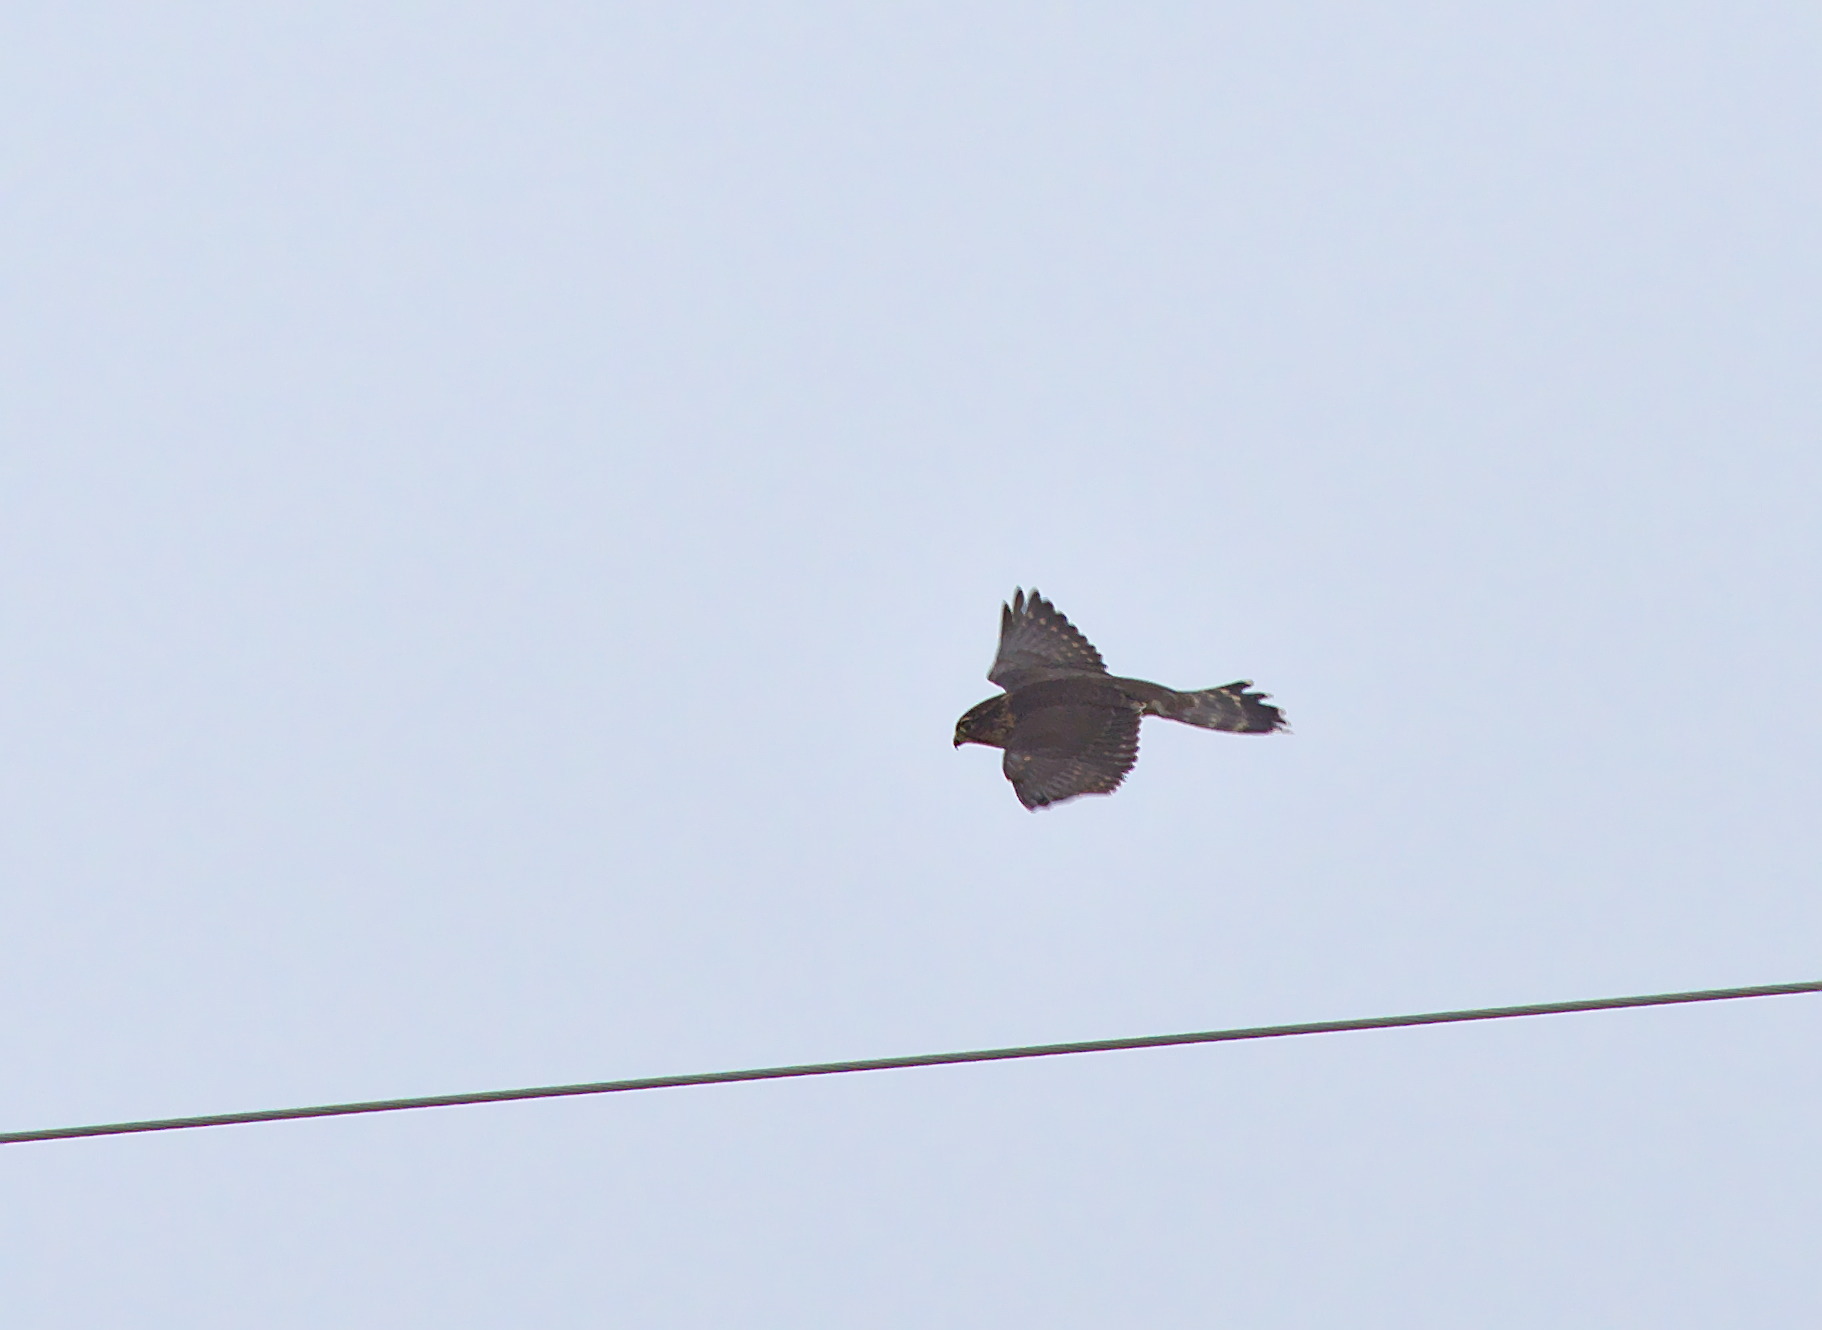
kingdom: Animalia
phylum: Chordata
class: Aves
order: Falconiformes
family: Falconidae
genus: Falco
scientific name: Falco columbarius
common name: Merlin
